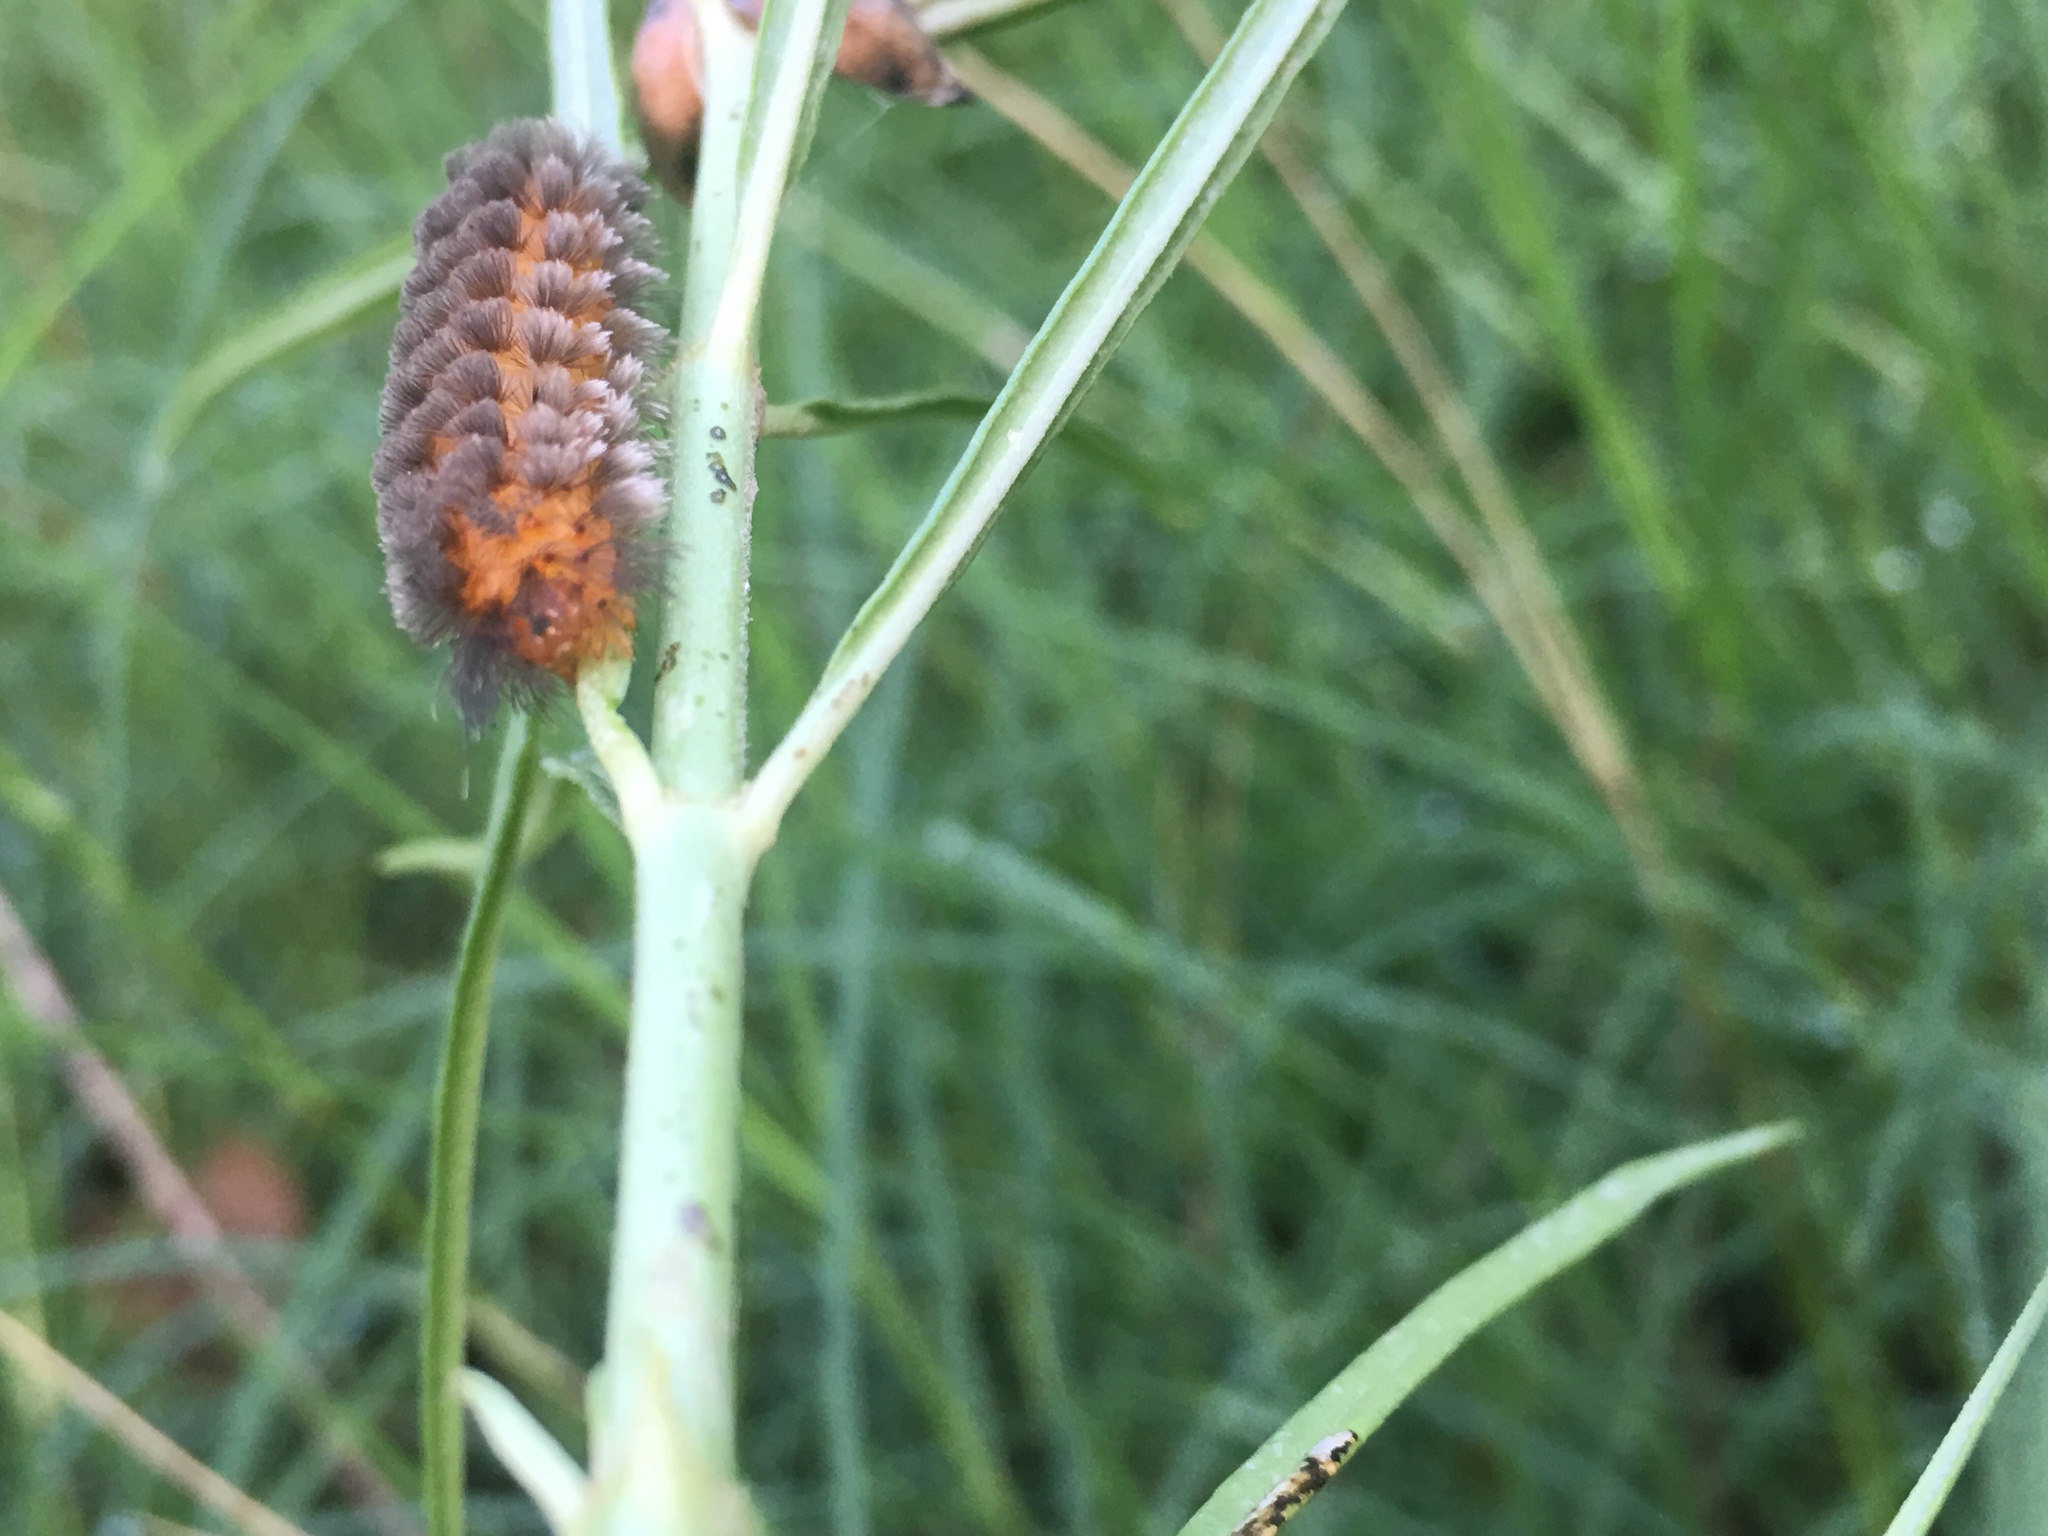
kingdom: Animalia
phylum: Arthropoda
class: Insecta
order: Lepidoptera
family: Erebidae
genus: Cycnia
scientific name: Cycnia collaris
